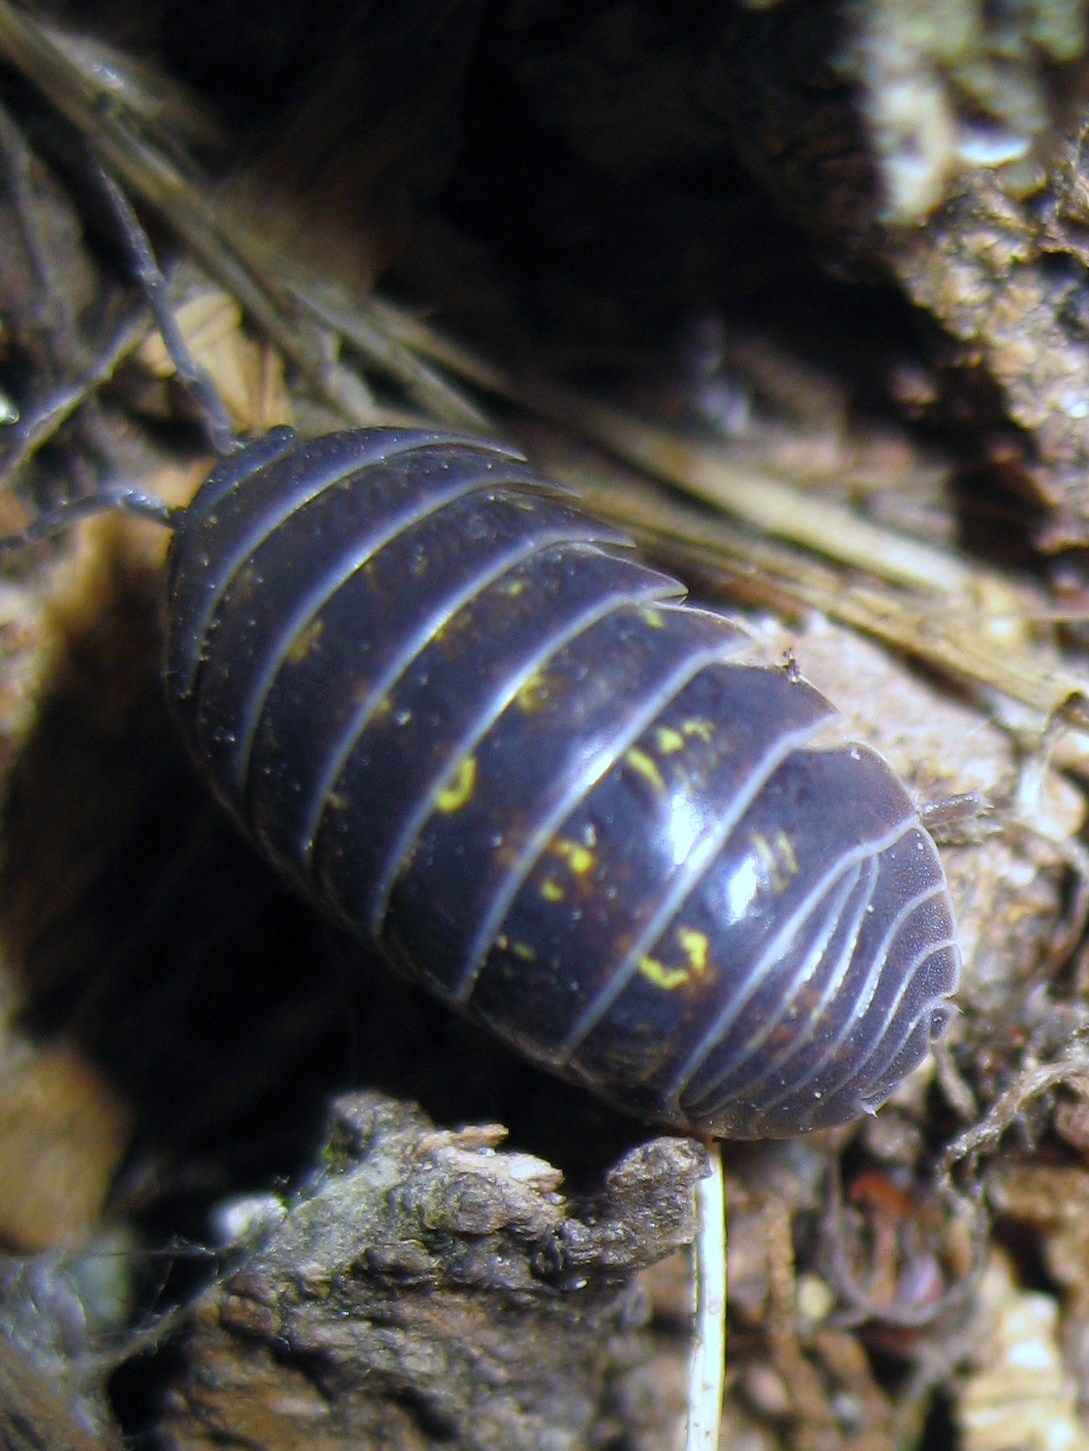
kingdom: Animalia
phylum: Arthropoda
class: Malacostraca
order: Isopoda
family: Armadillidiidae
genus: Armadillidium
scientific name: Armadillidium vulgare
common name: Common pill woodlouse
